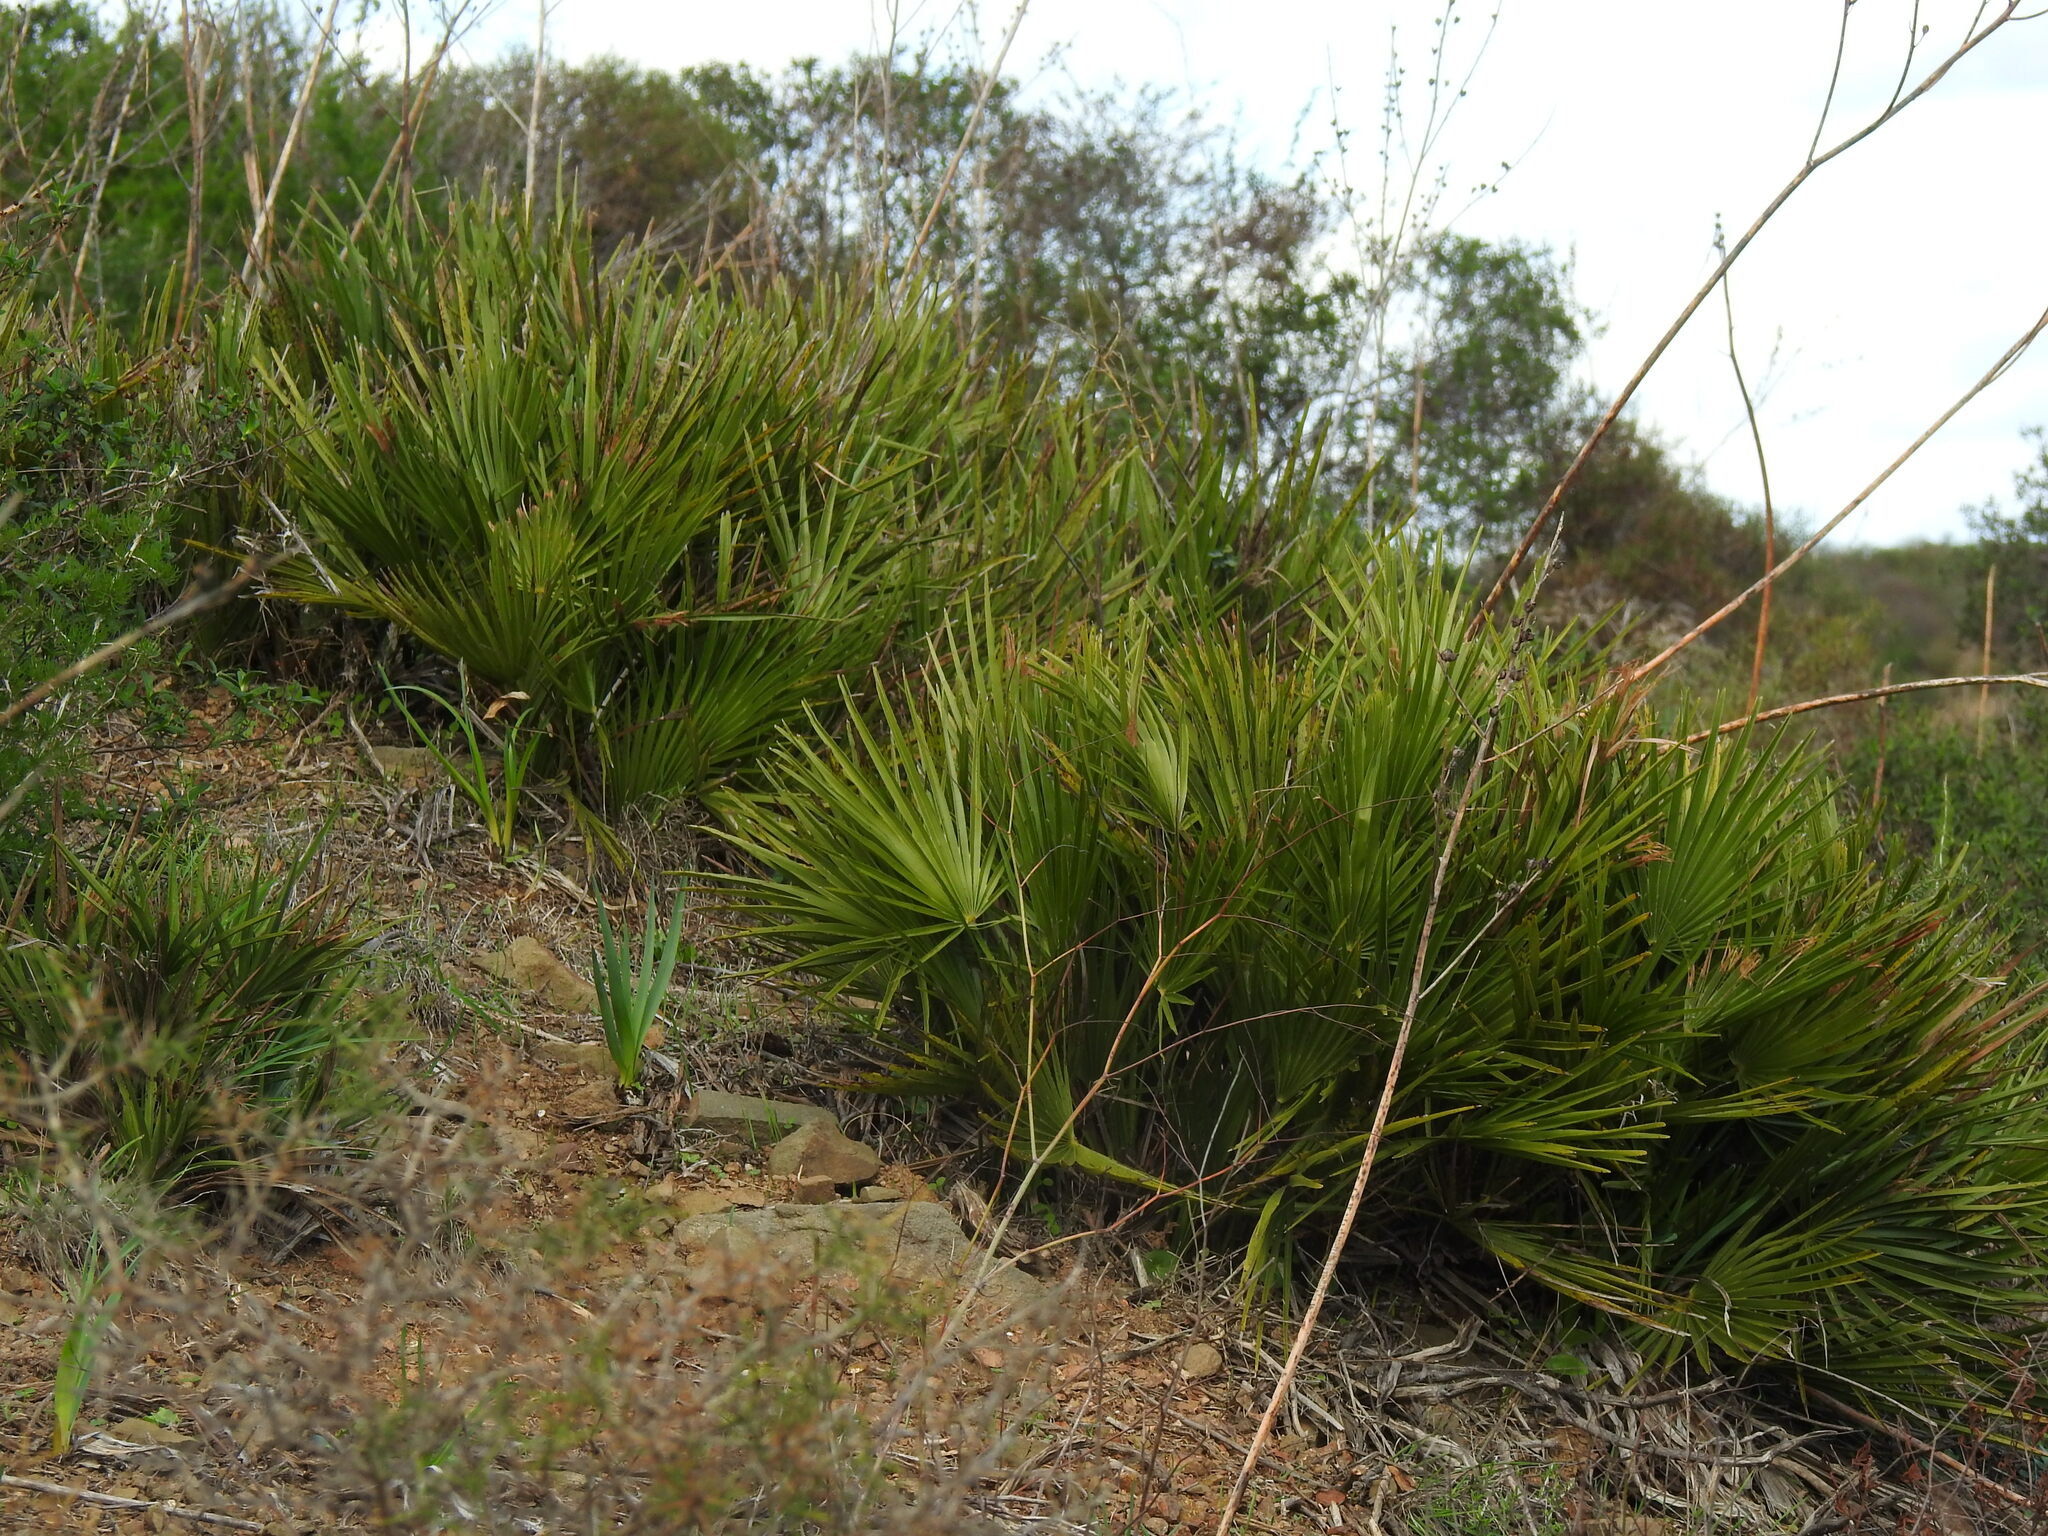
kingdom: Plantae
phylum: Tracheophyta
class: Liliopsida
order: Arecales
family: Arecaceae
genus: Chamaerops
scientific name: Chamaerops humilis
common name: Dwarf fan palm
